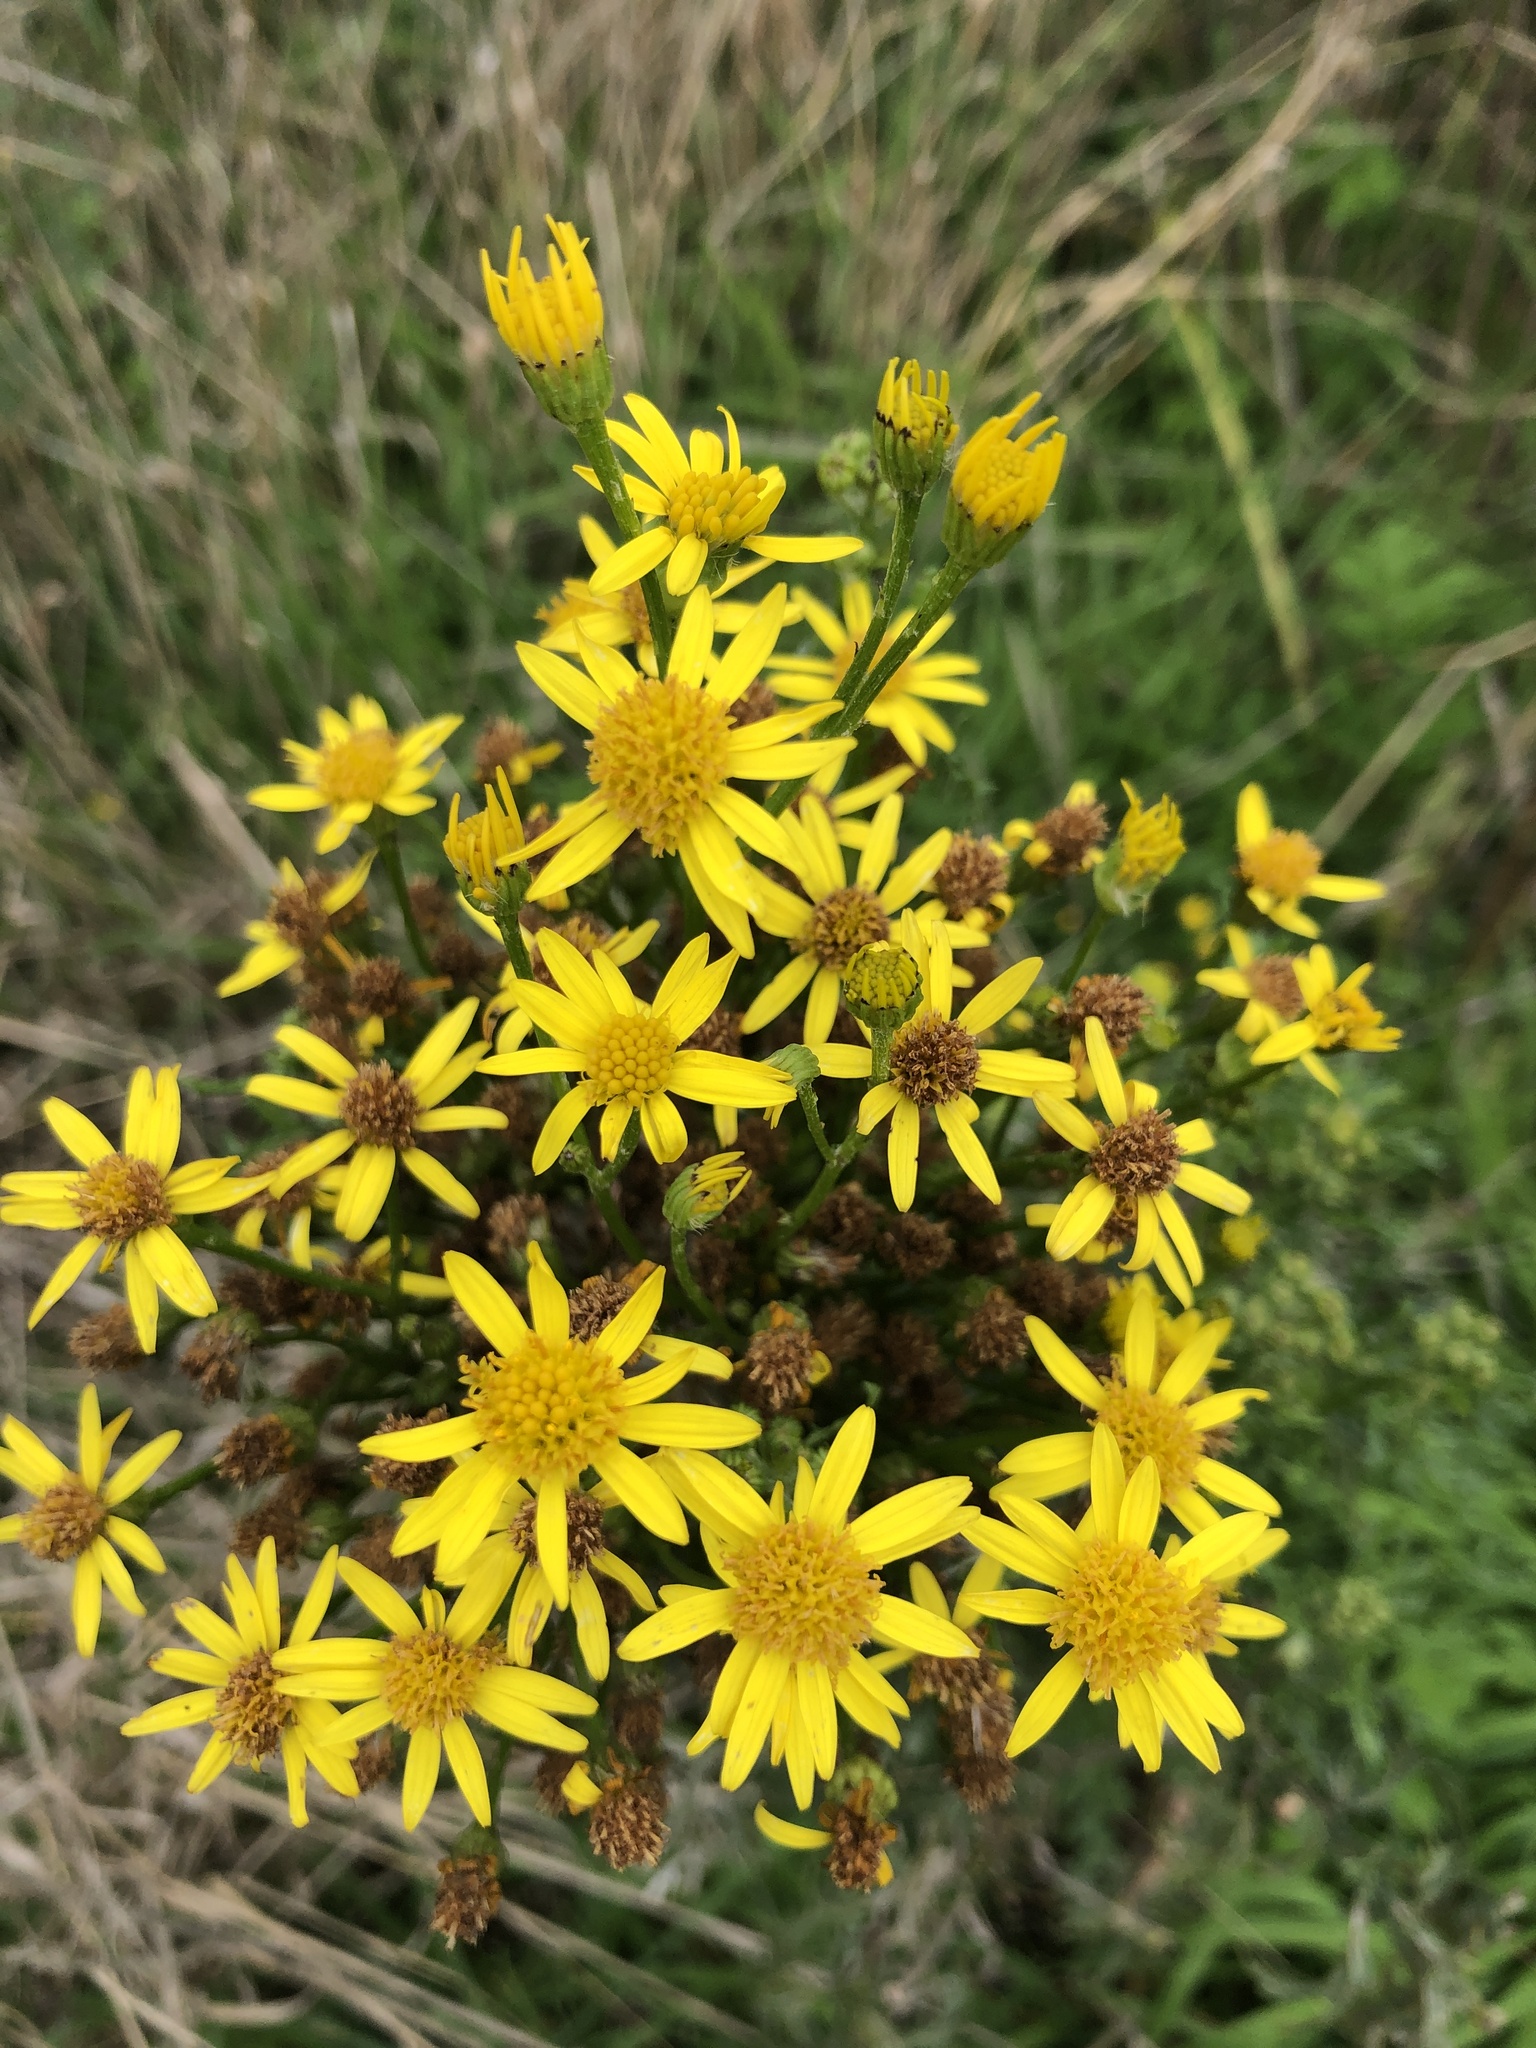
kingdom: Plantae
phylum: Tracheophyta
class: Magnoliopsida
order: Asterales
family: Asteraceae
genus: Jacobaea
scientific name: Jacobaea vulgaris
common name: Stinking willie
